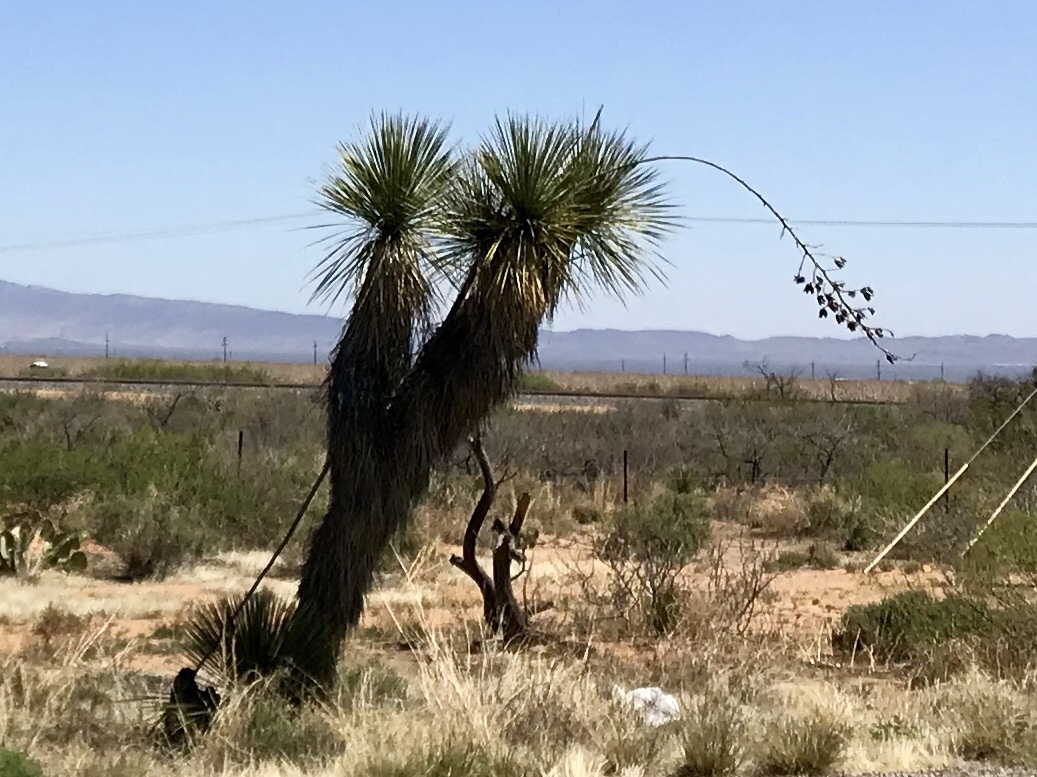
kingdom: Plantae
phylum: Tracheophyta
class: Liliopsida
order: Asparagales
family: Asparagaceae
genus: Yucca
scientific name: Yucca elata
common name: Palmella
